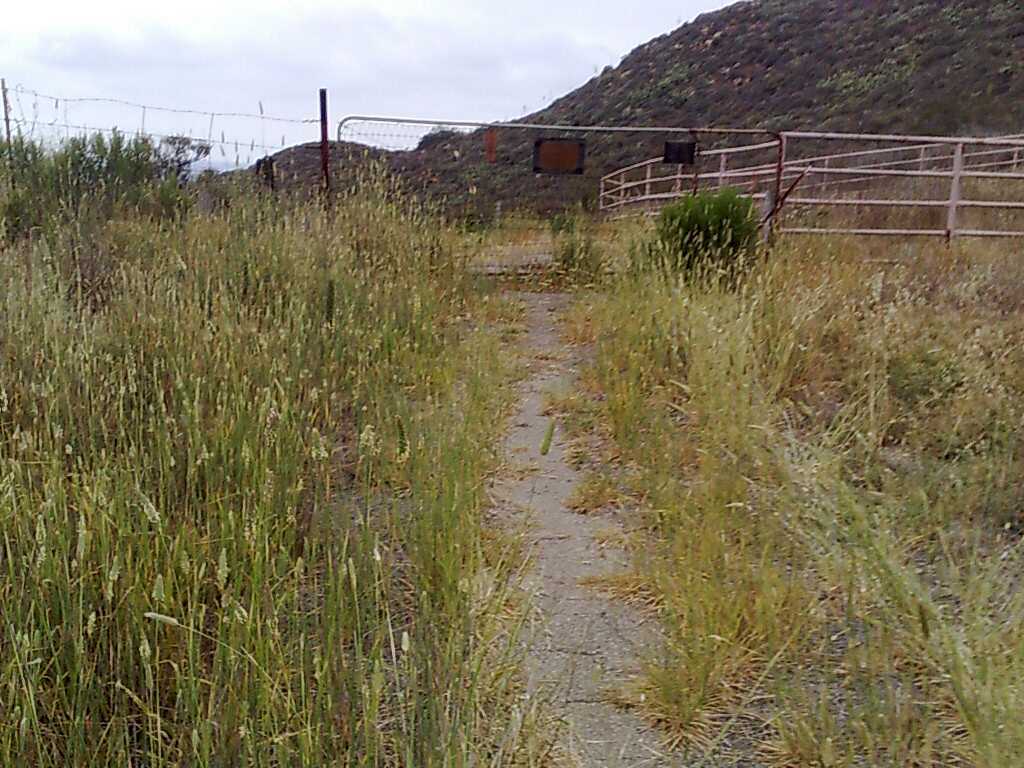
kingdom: Plantae
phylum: Tracheophyta
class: Liliopsida
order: Poales
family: Poaceae
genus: Phalaris
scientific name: Phalaris aquatica
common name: Bulbous canary-grass
